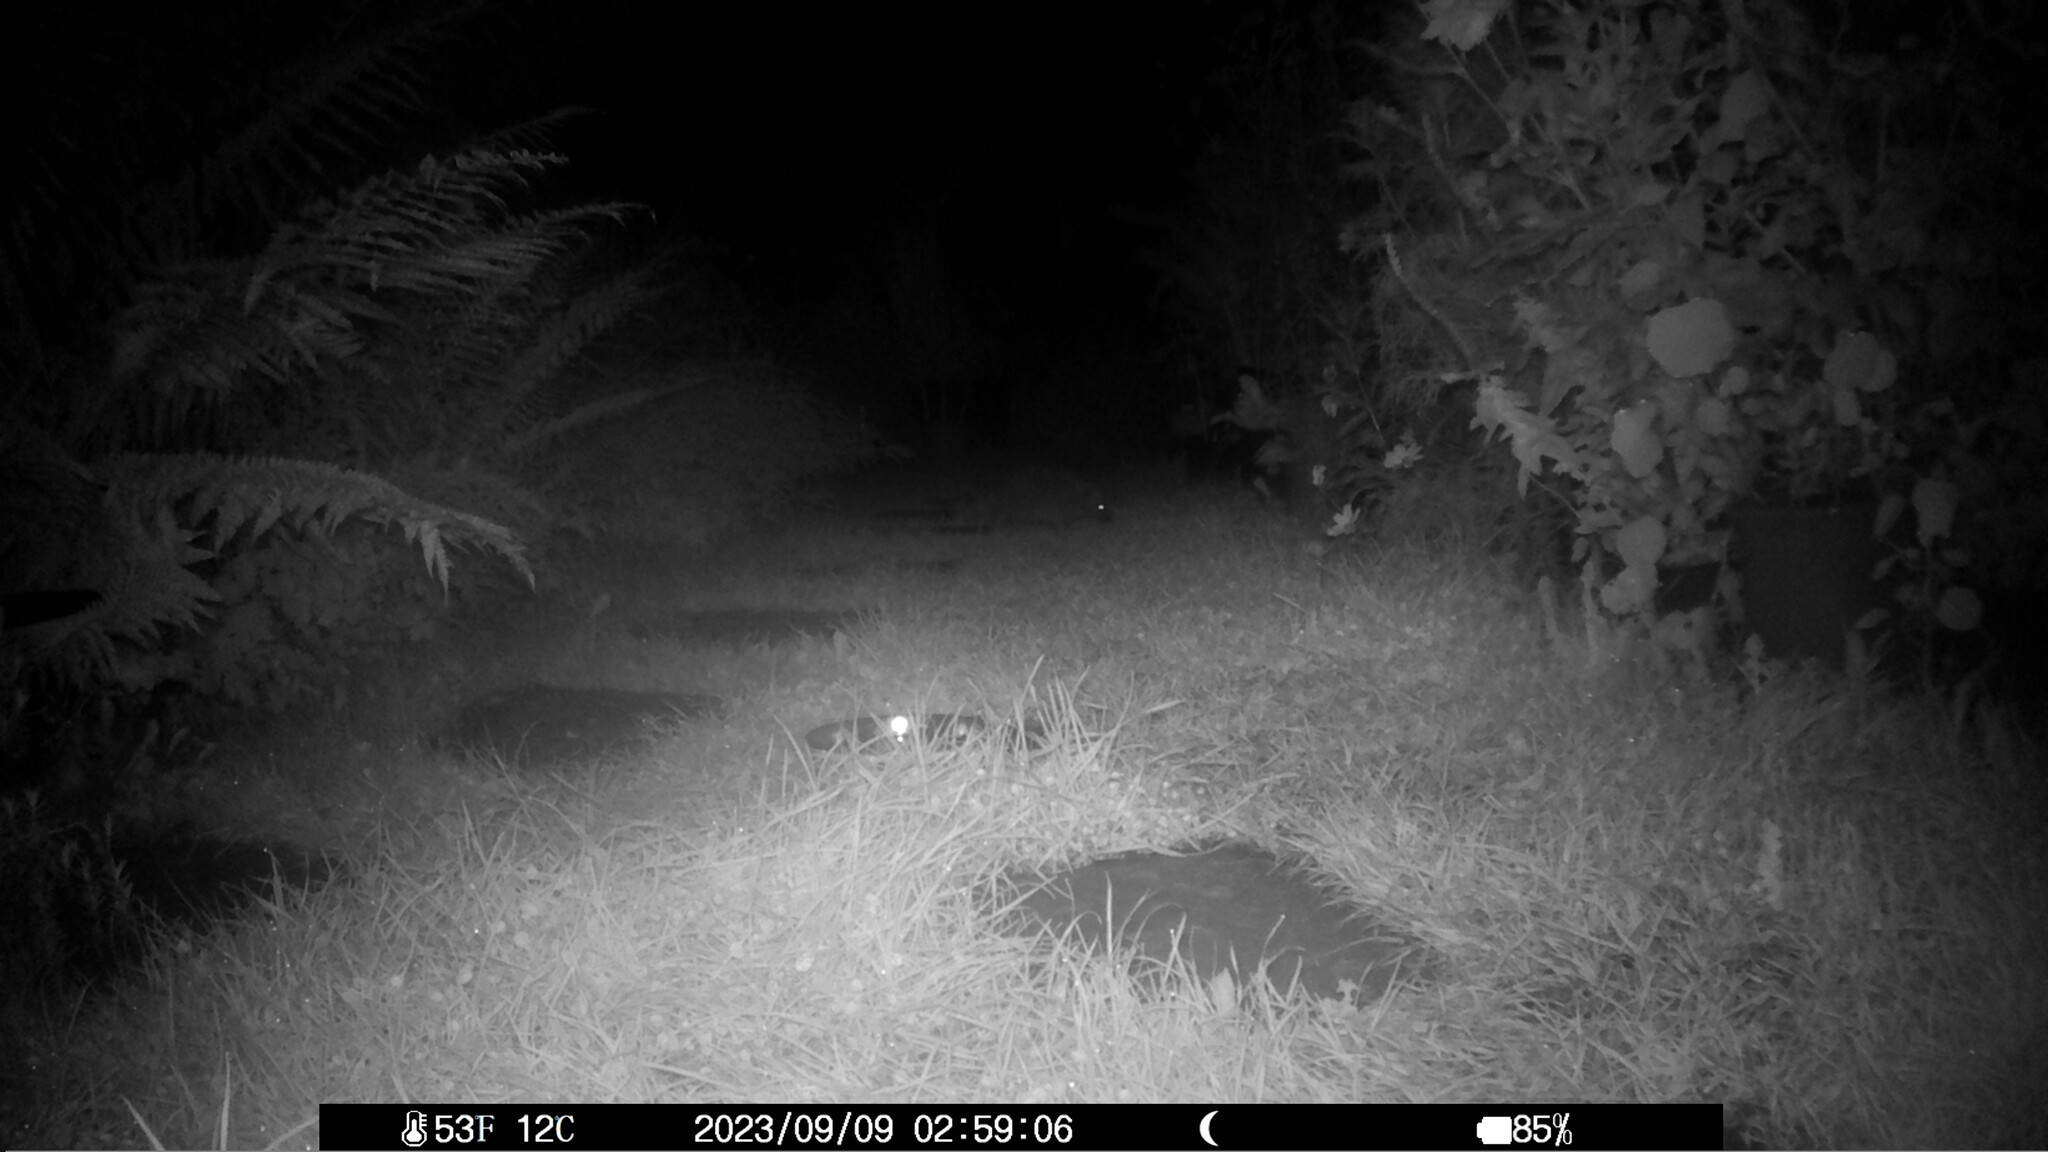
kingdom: Animalia
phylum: Chordata
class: Mammalia
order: Erinaceomorpha
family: Erinaceidae
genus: Erinaceus
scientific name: Erinaceus europaeus
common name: West european hedgehog
